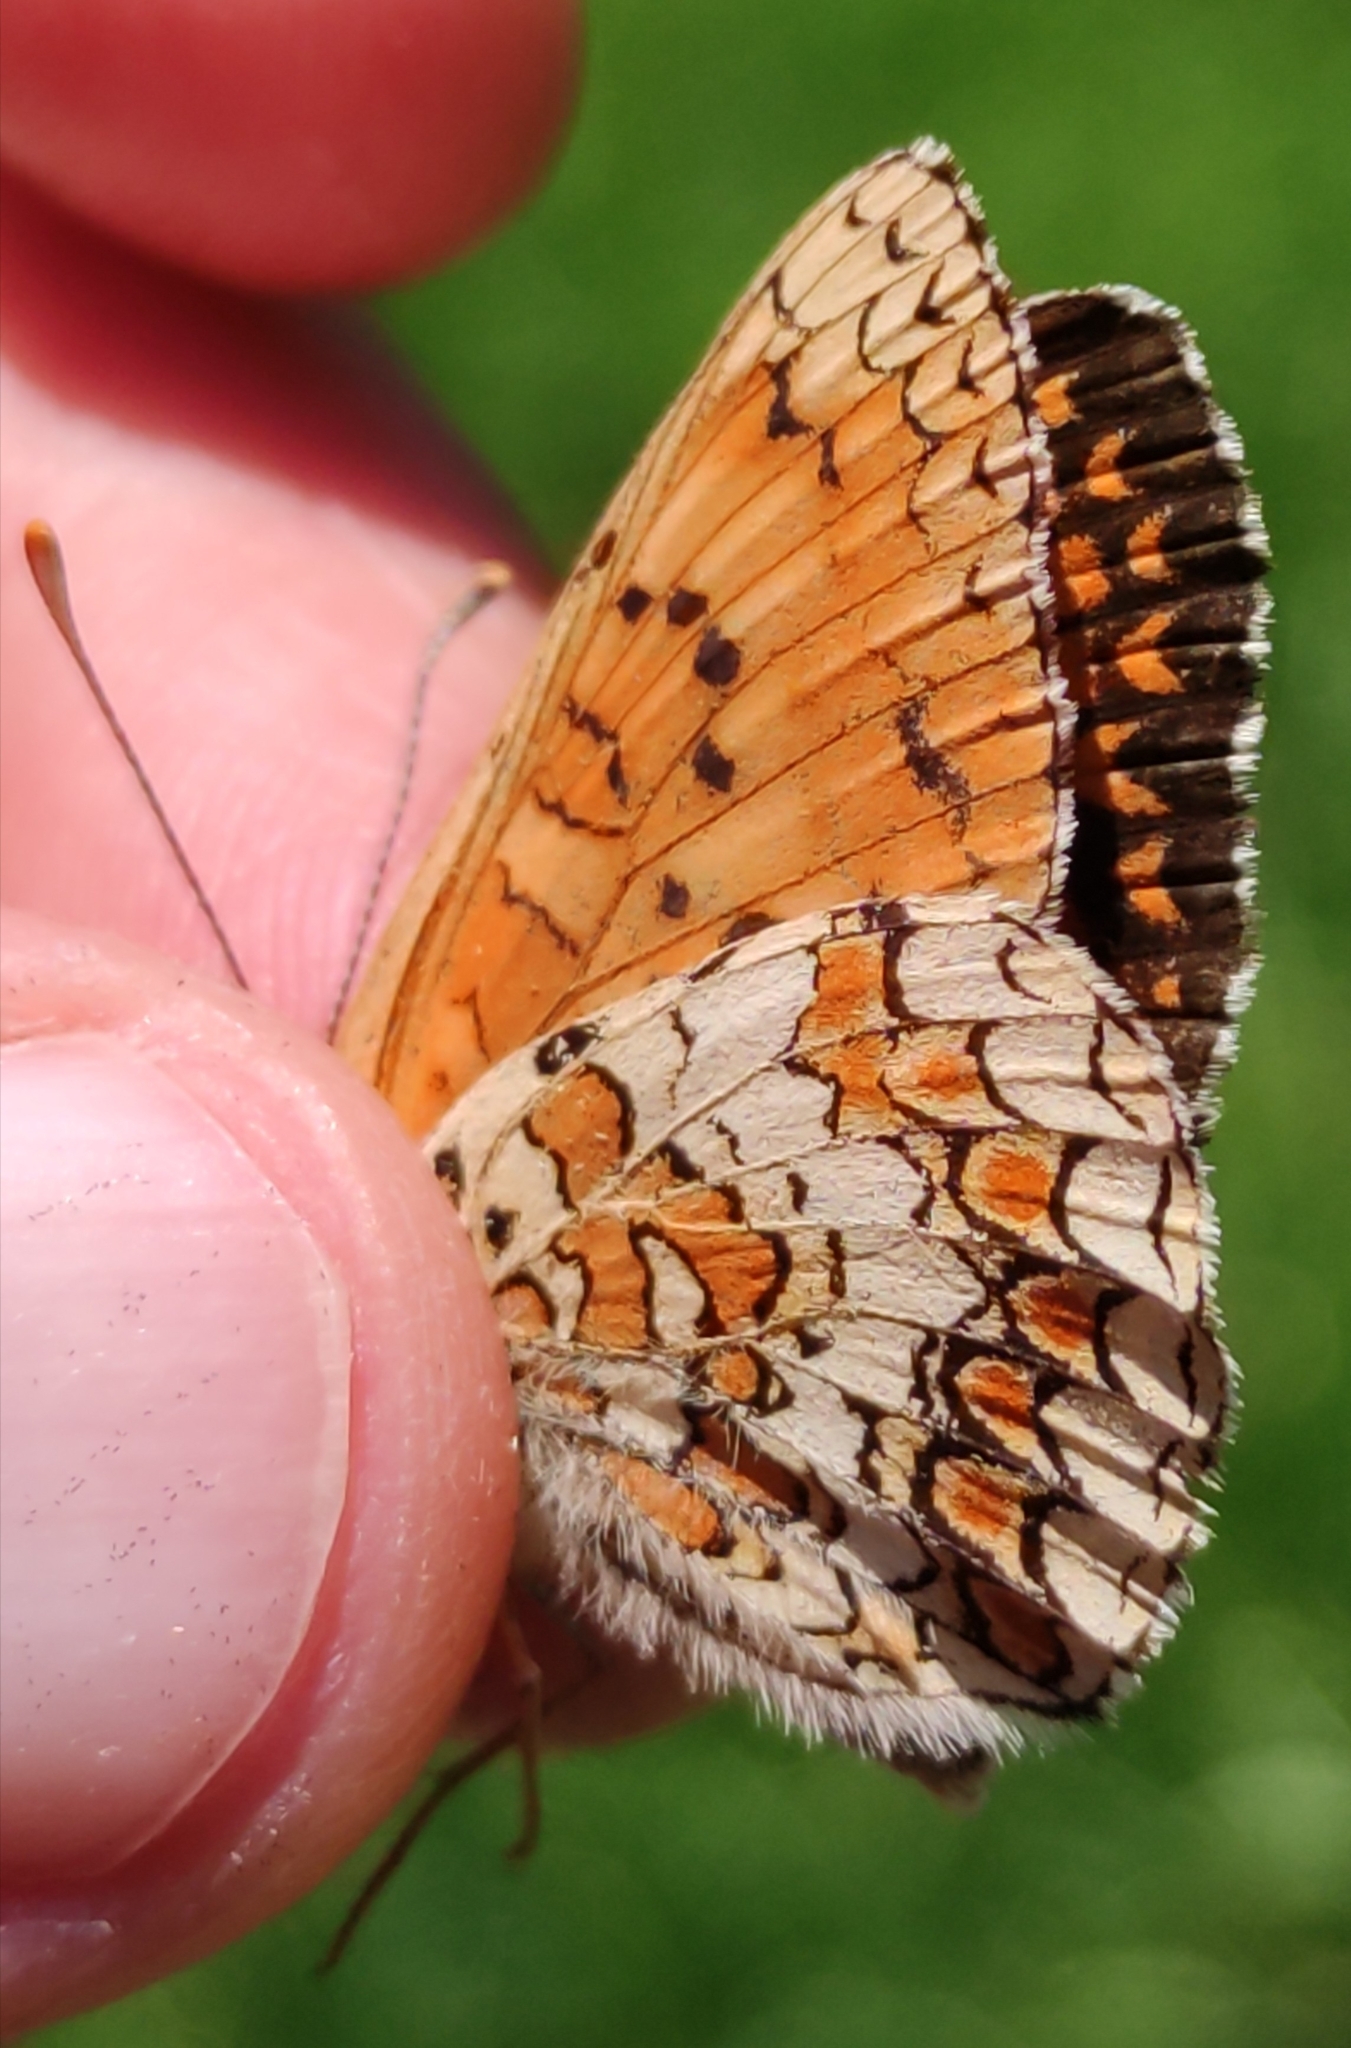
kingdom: Animalia
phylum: Arthropoda
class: Insecta
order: Lepidoptera
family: Nymphalidae
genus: Melitaea
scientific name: Melitaea phoebe
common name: Knapweed fritillary
